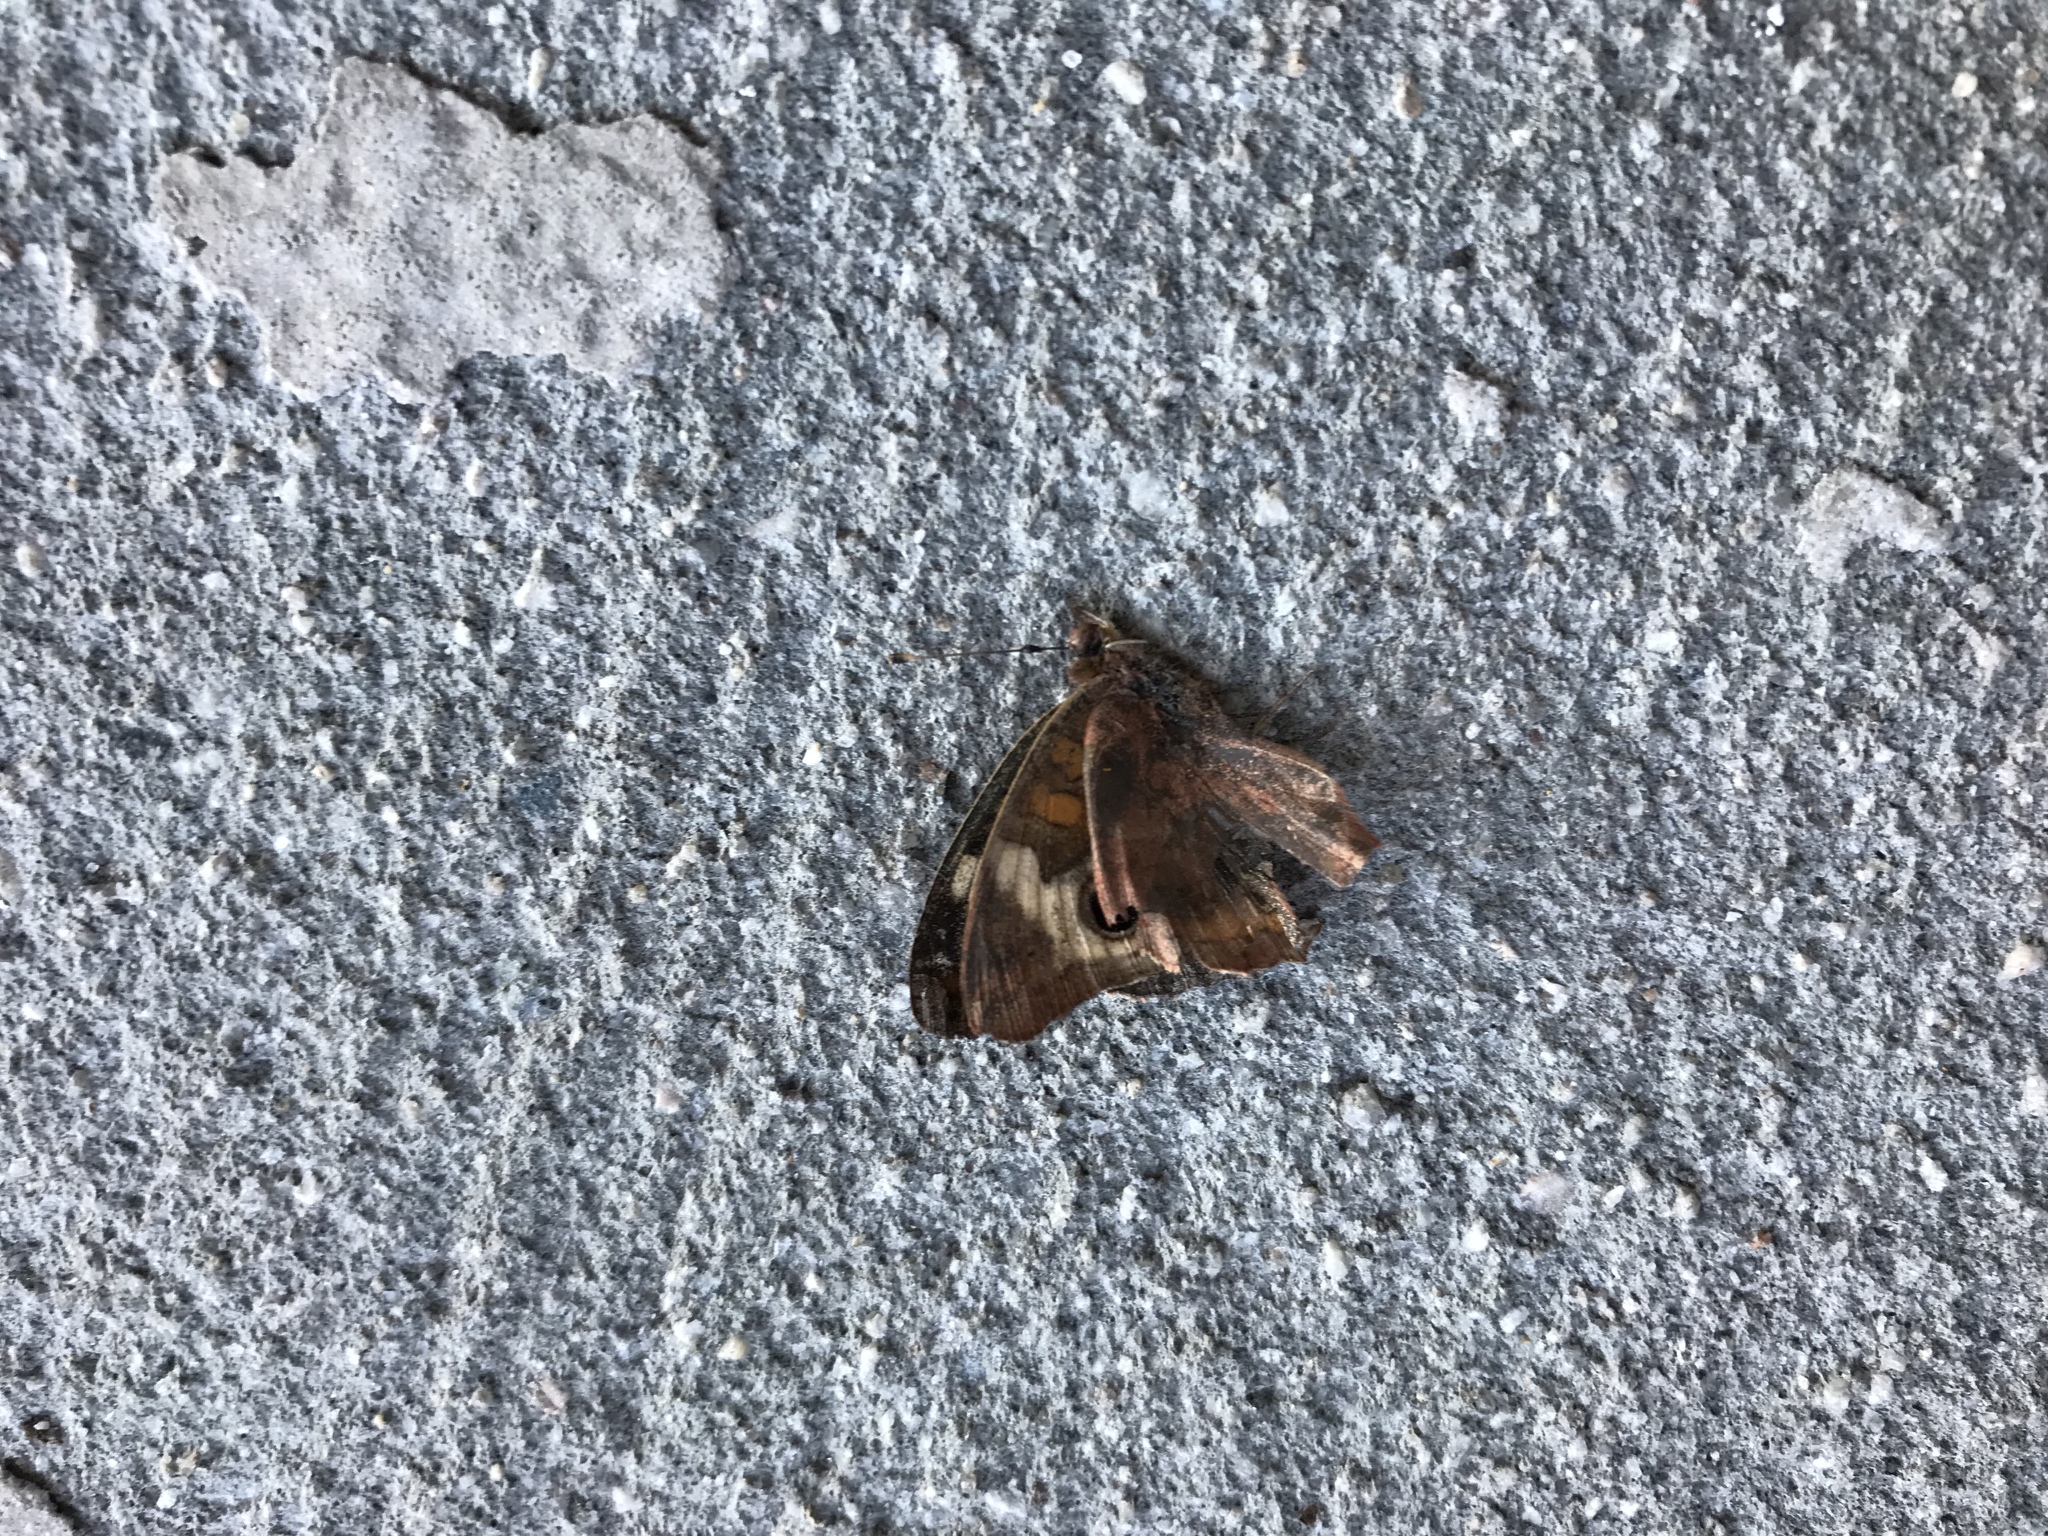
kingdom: Animalia
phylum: Arthropoda
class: Insecta
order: Lepidoptera
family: Nymphalidae
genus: Junonia
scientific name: Junonia coenia
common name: Common buckeye
